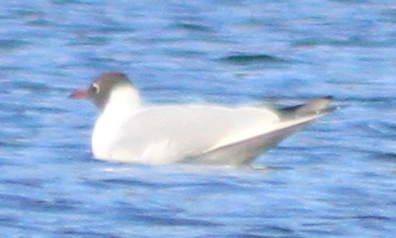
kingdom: Animalia
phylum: Chordata
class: Aves
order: Charadriiformes
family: Laridae
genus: Chroicocephalus
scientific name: Chroicocephalus ridibundus
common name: Black-headed gull
